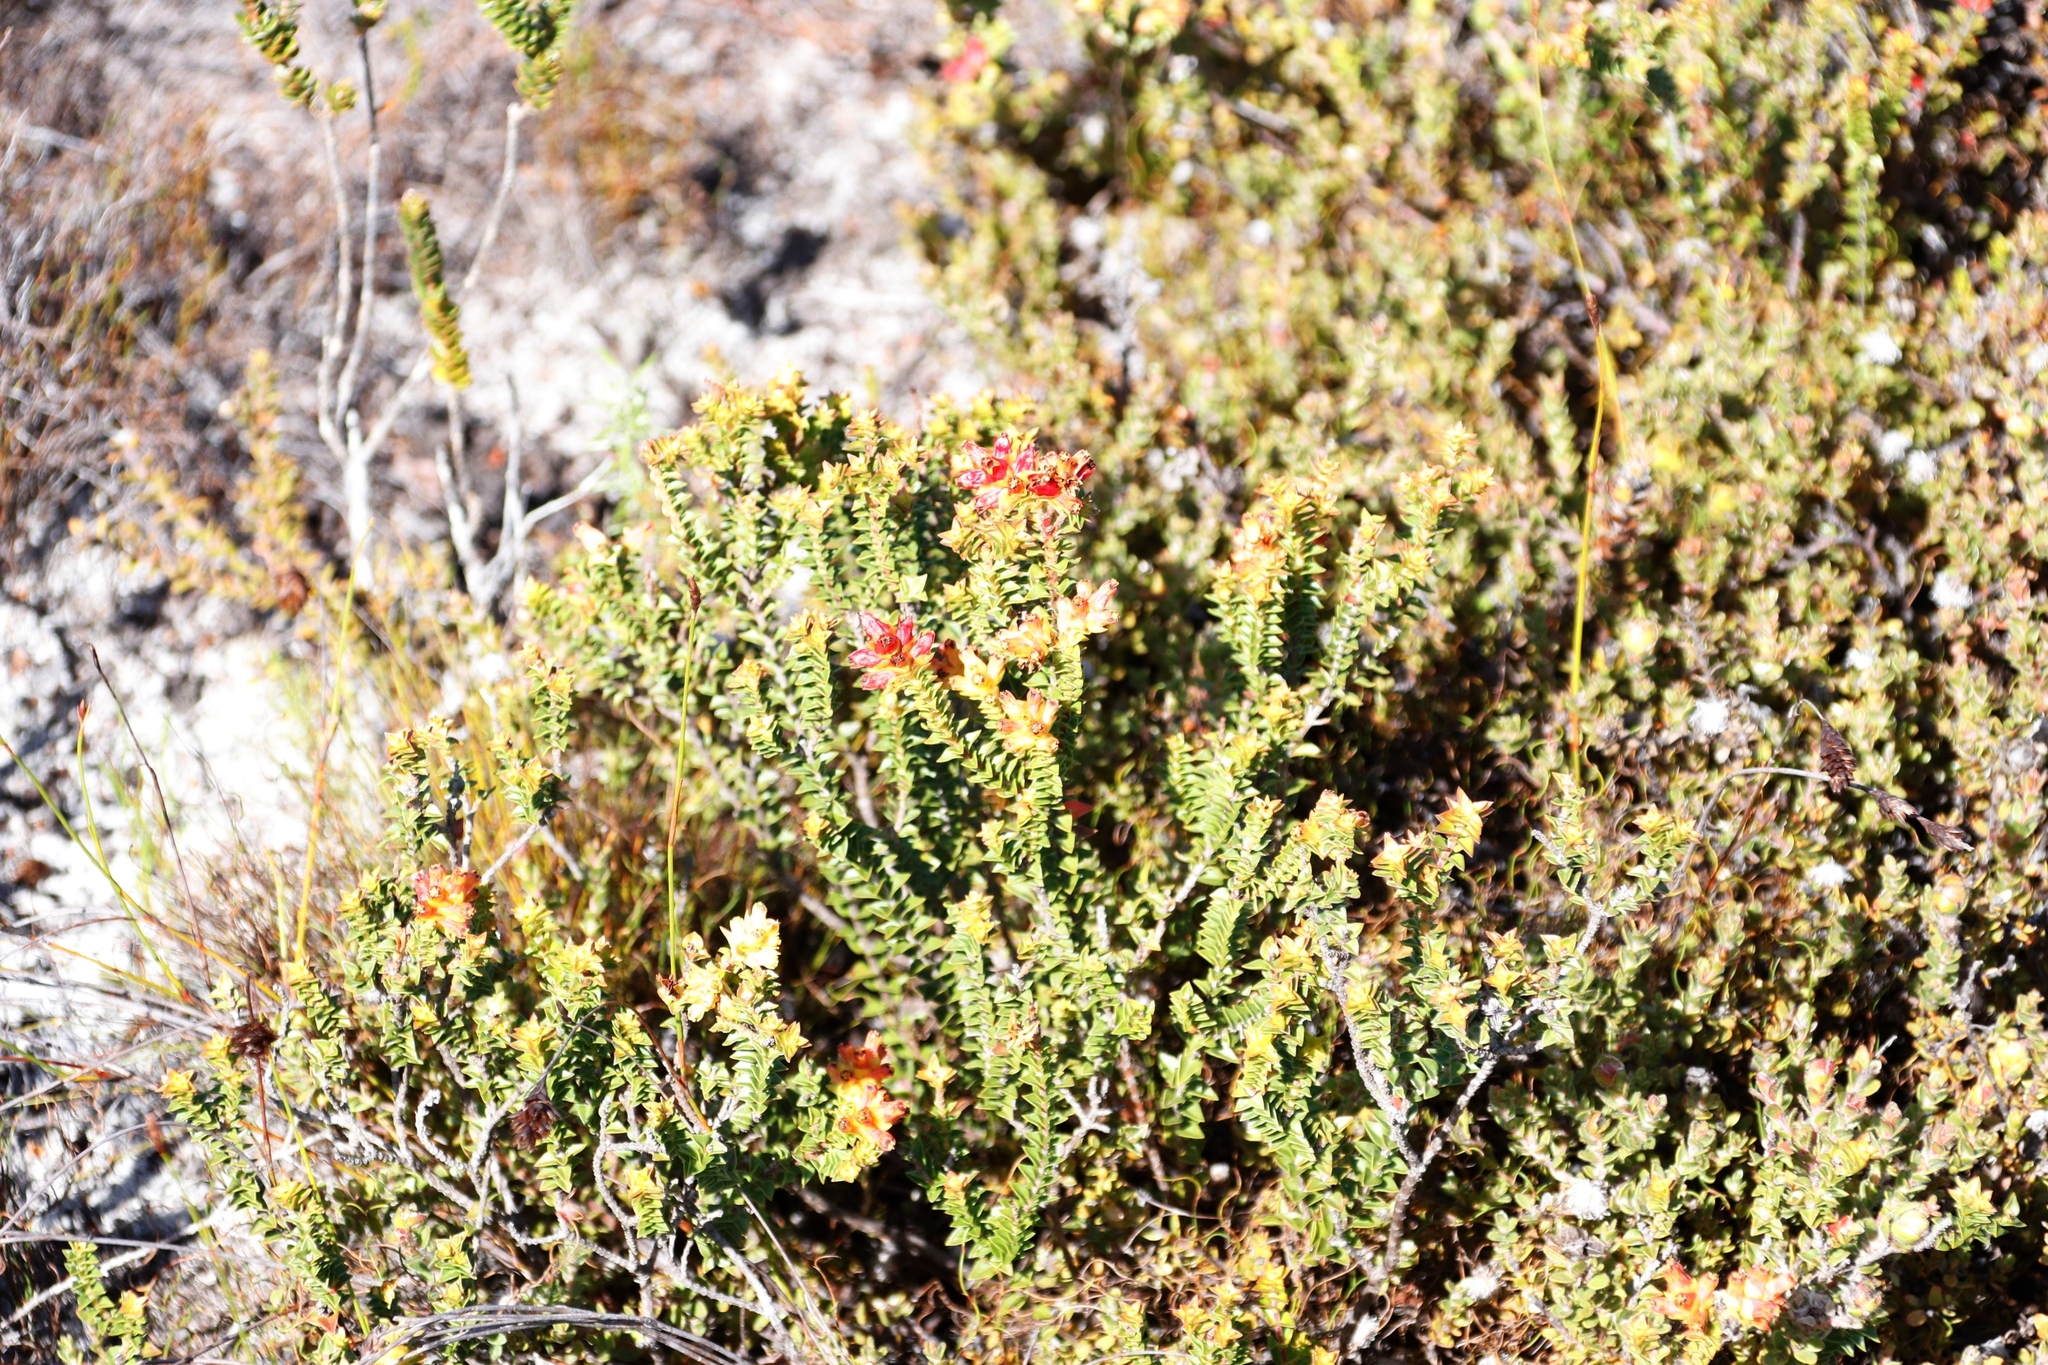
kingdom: Plantae
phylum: Tracheophyta
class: Magnoliopsida
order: Myrtales
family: Penaeaceae
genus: Penaea
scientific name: Penaea mucronata
